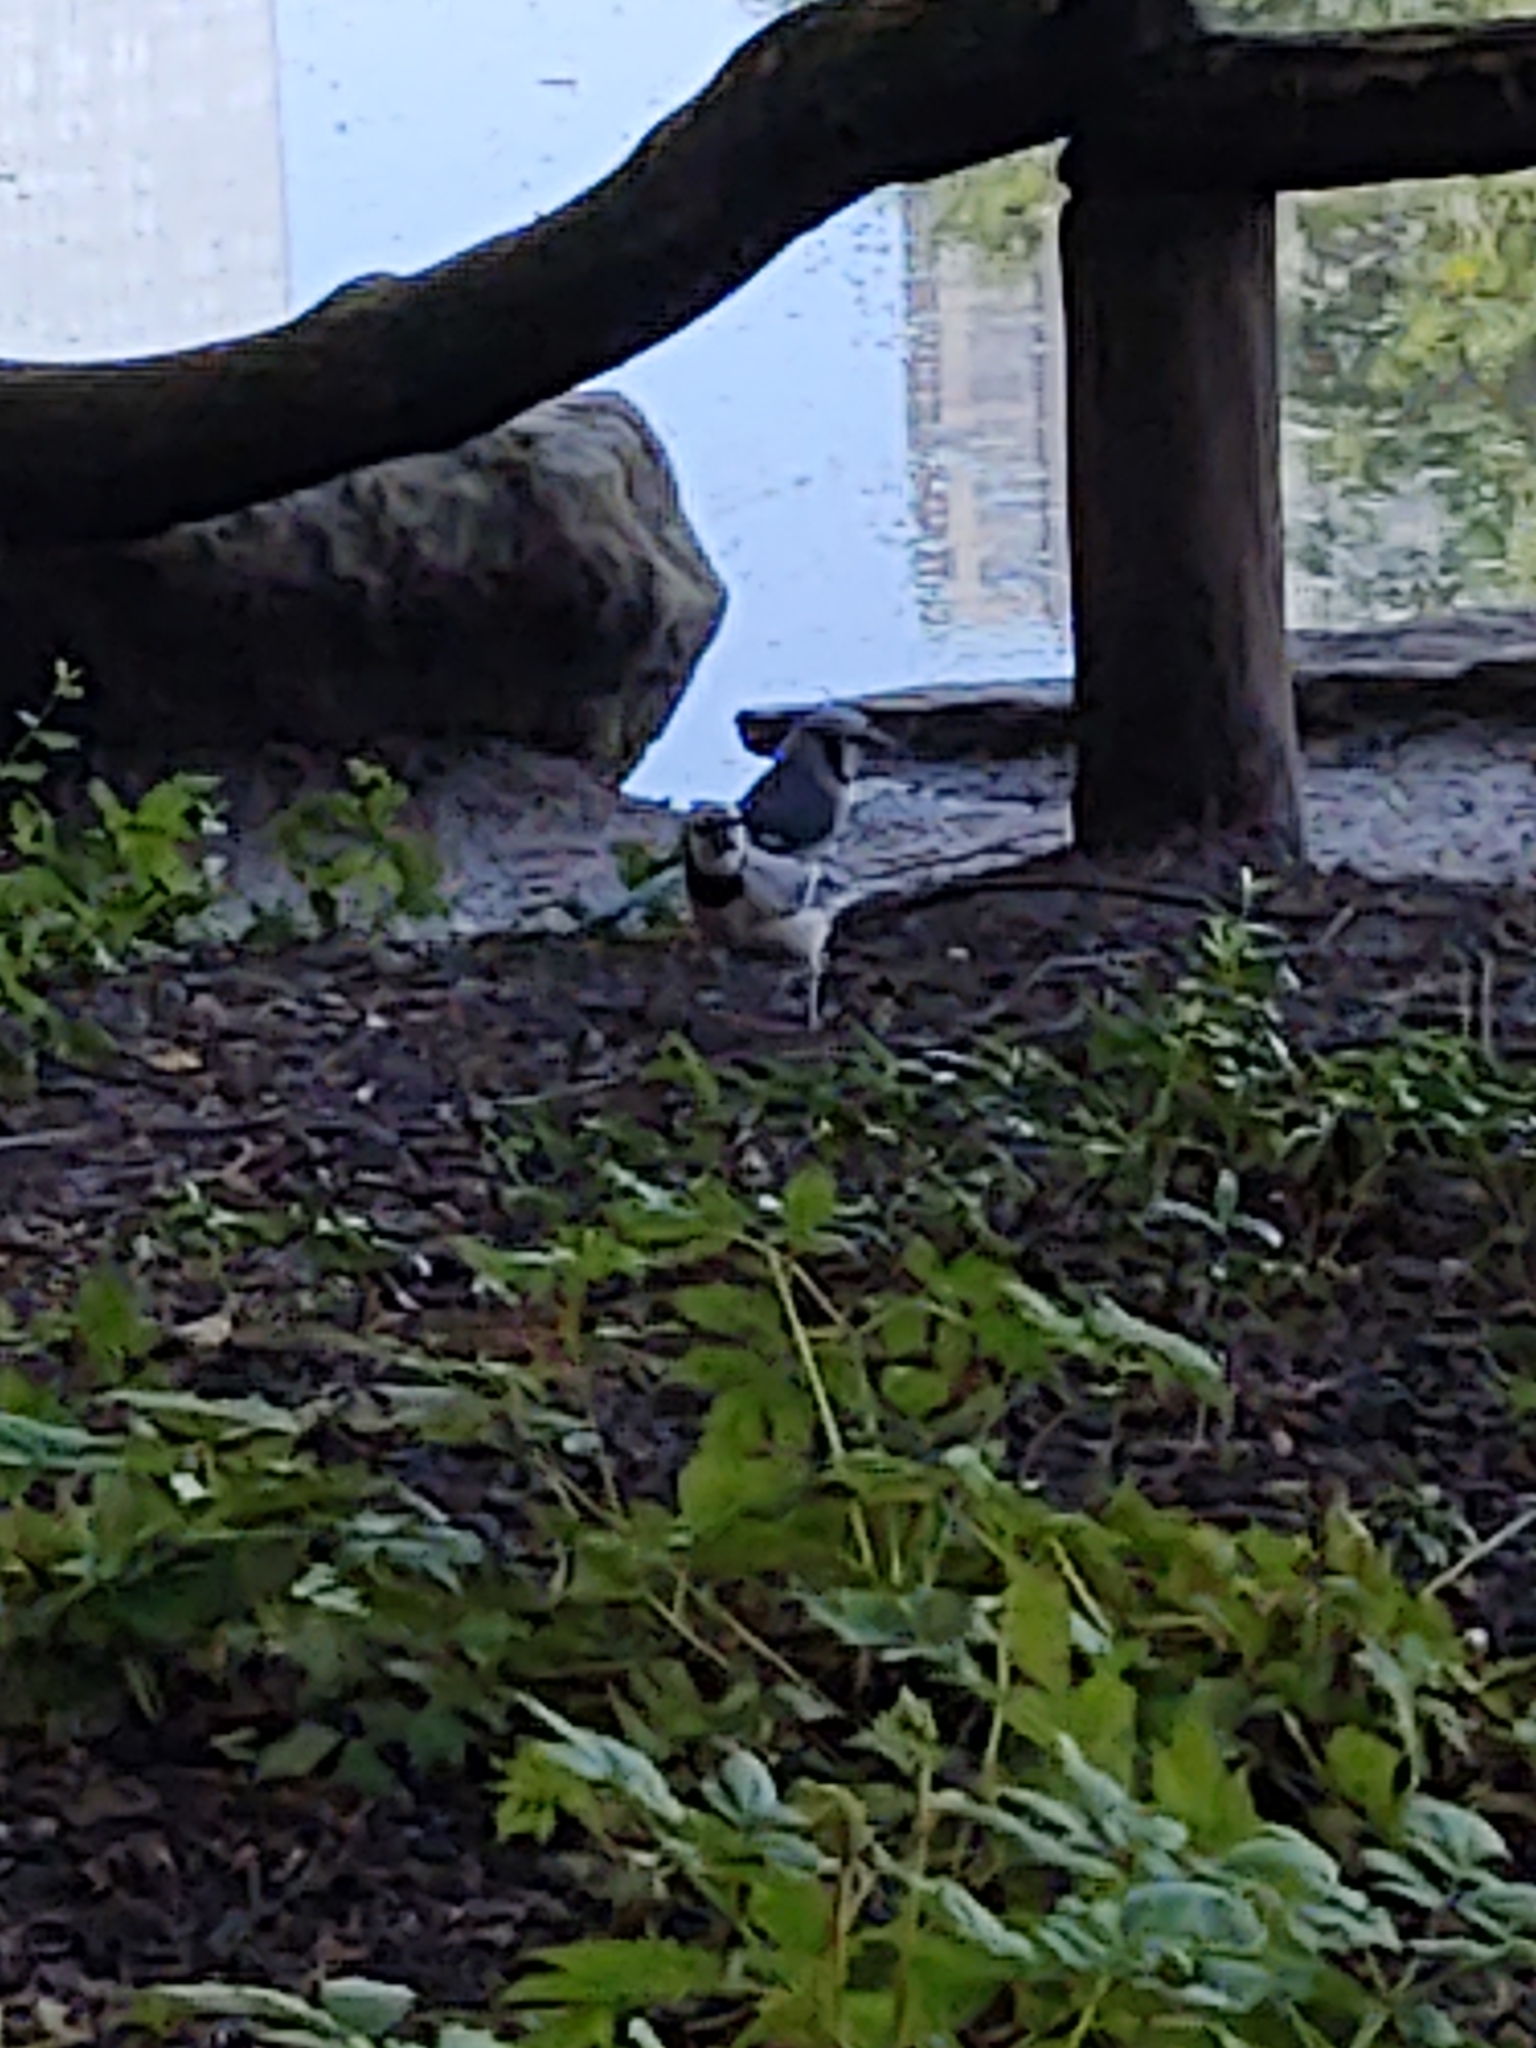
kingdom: Animalia
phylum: Chordata
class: Aves
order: Passeriformes
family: Corvidae
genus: Cyanocitta
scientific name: Cyanocitta cristata
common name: Blue jay
